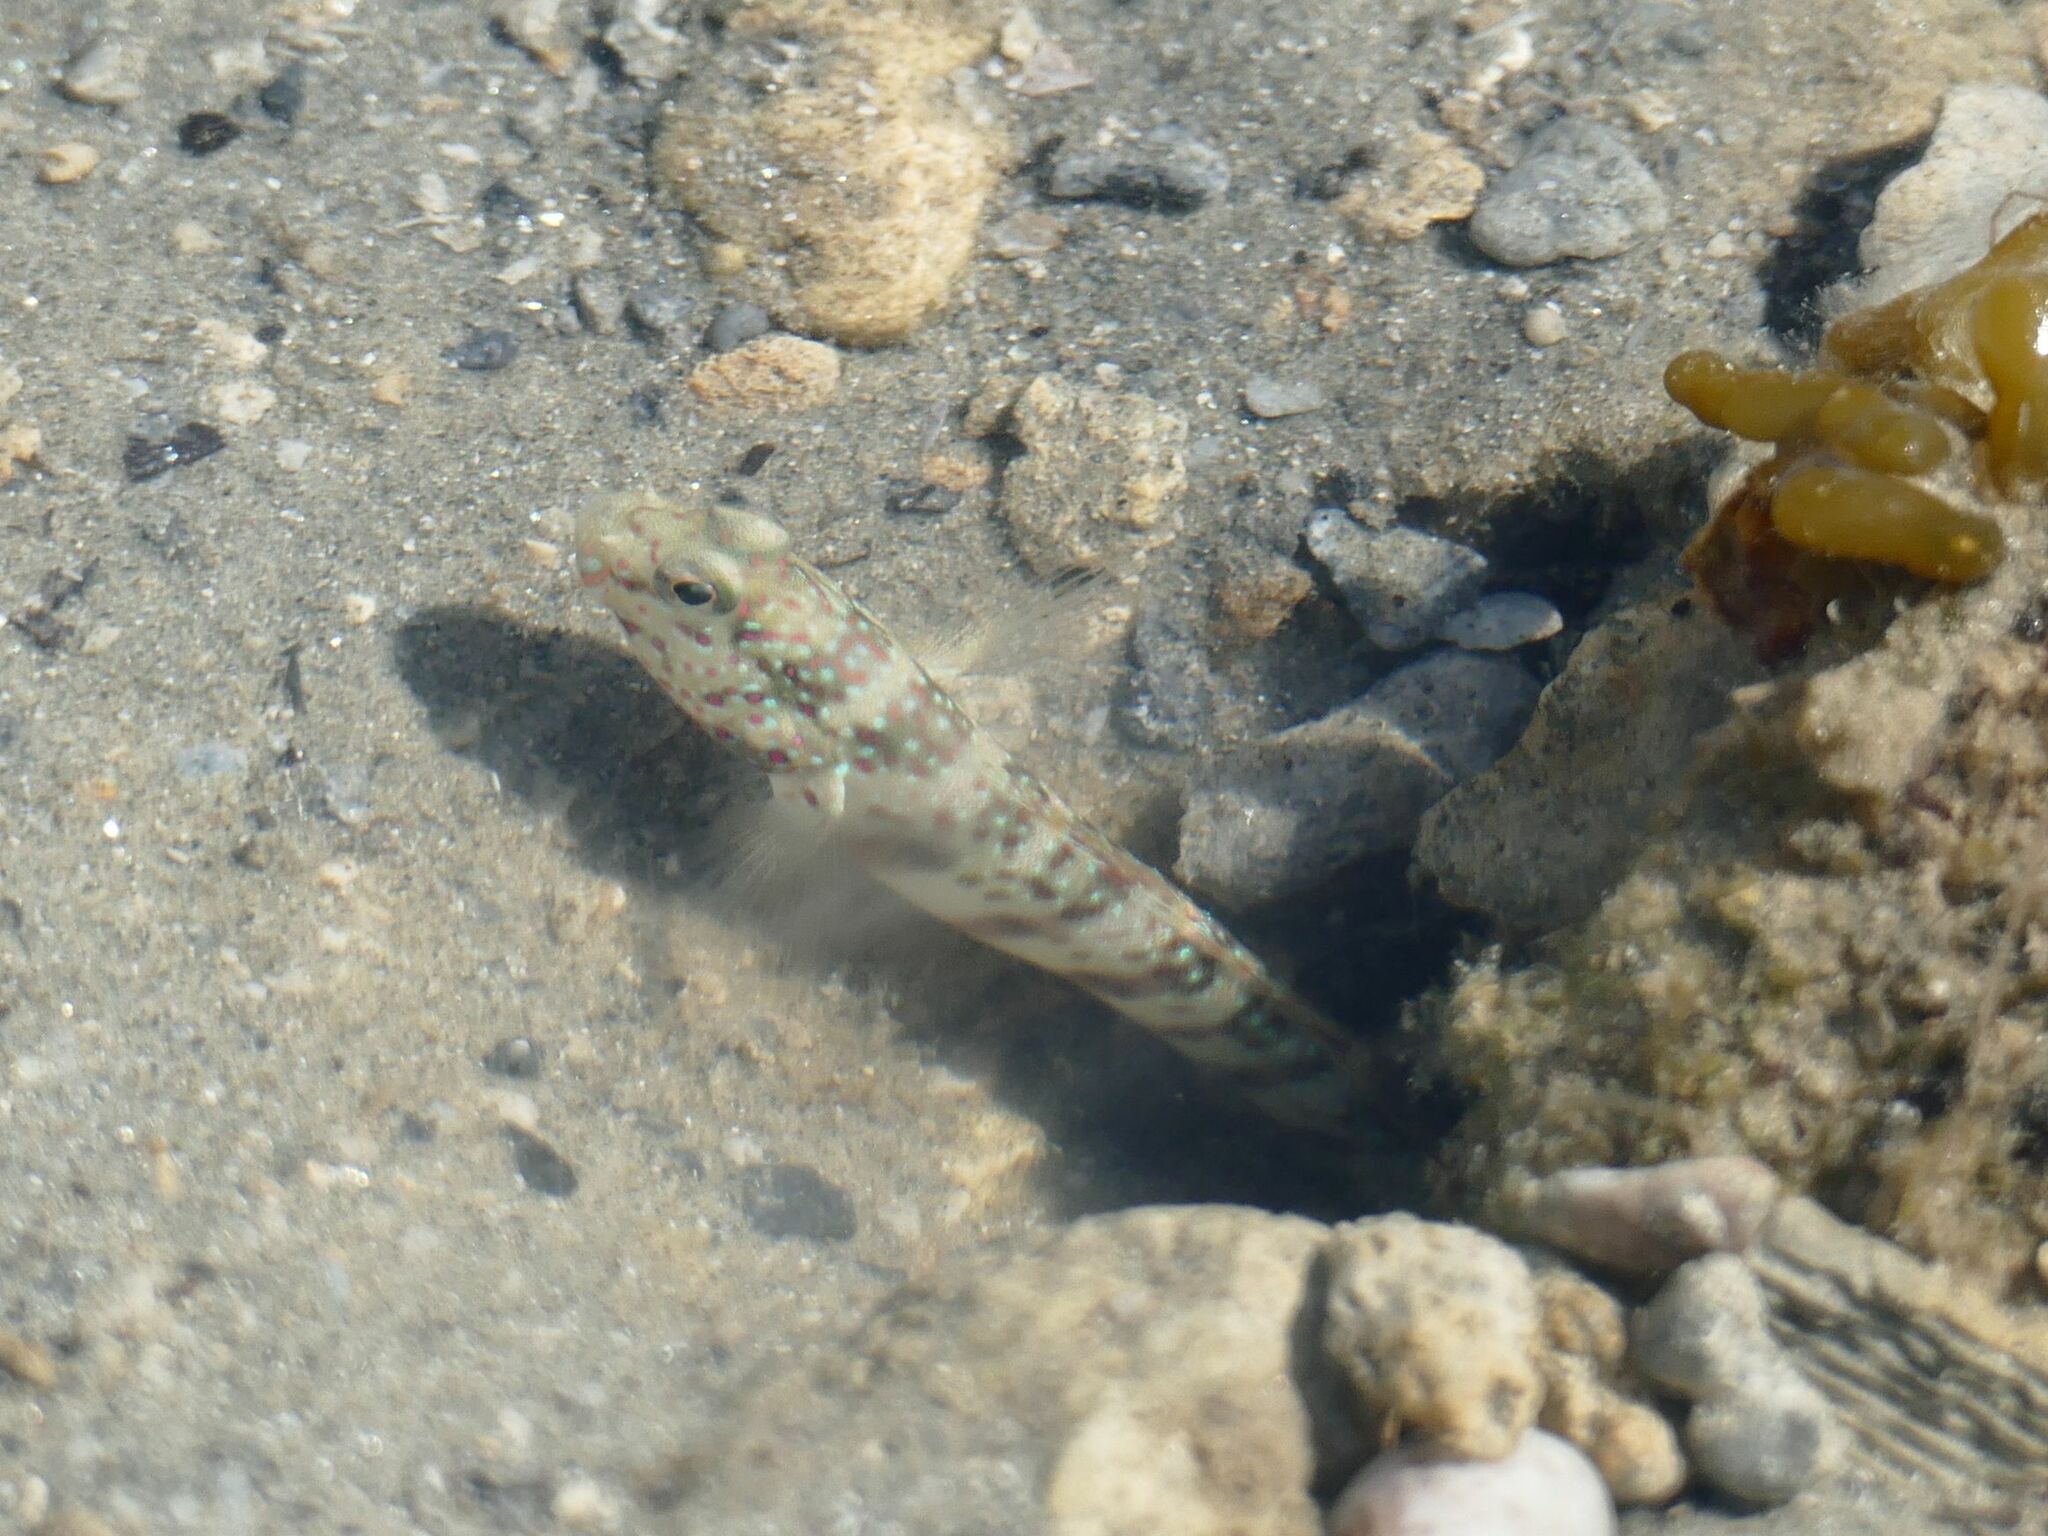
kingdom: Animalia
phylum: Chordata
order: Perciformes
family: Gobiidae
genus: Cryptocentrus
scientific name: Cryptocentrus leptocephalus
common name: Leptocephalus prawn-goby
